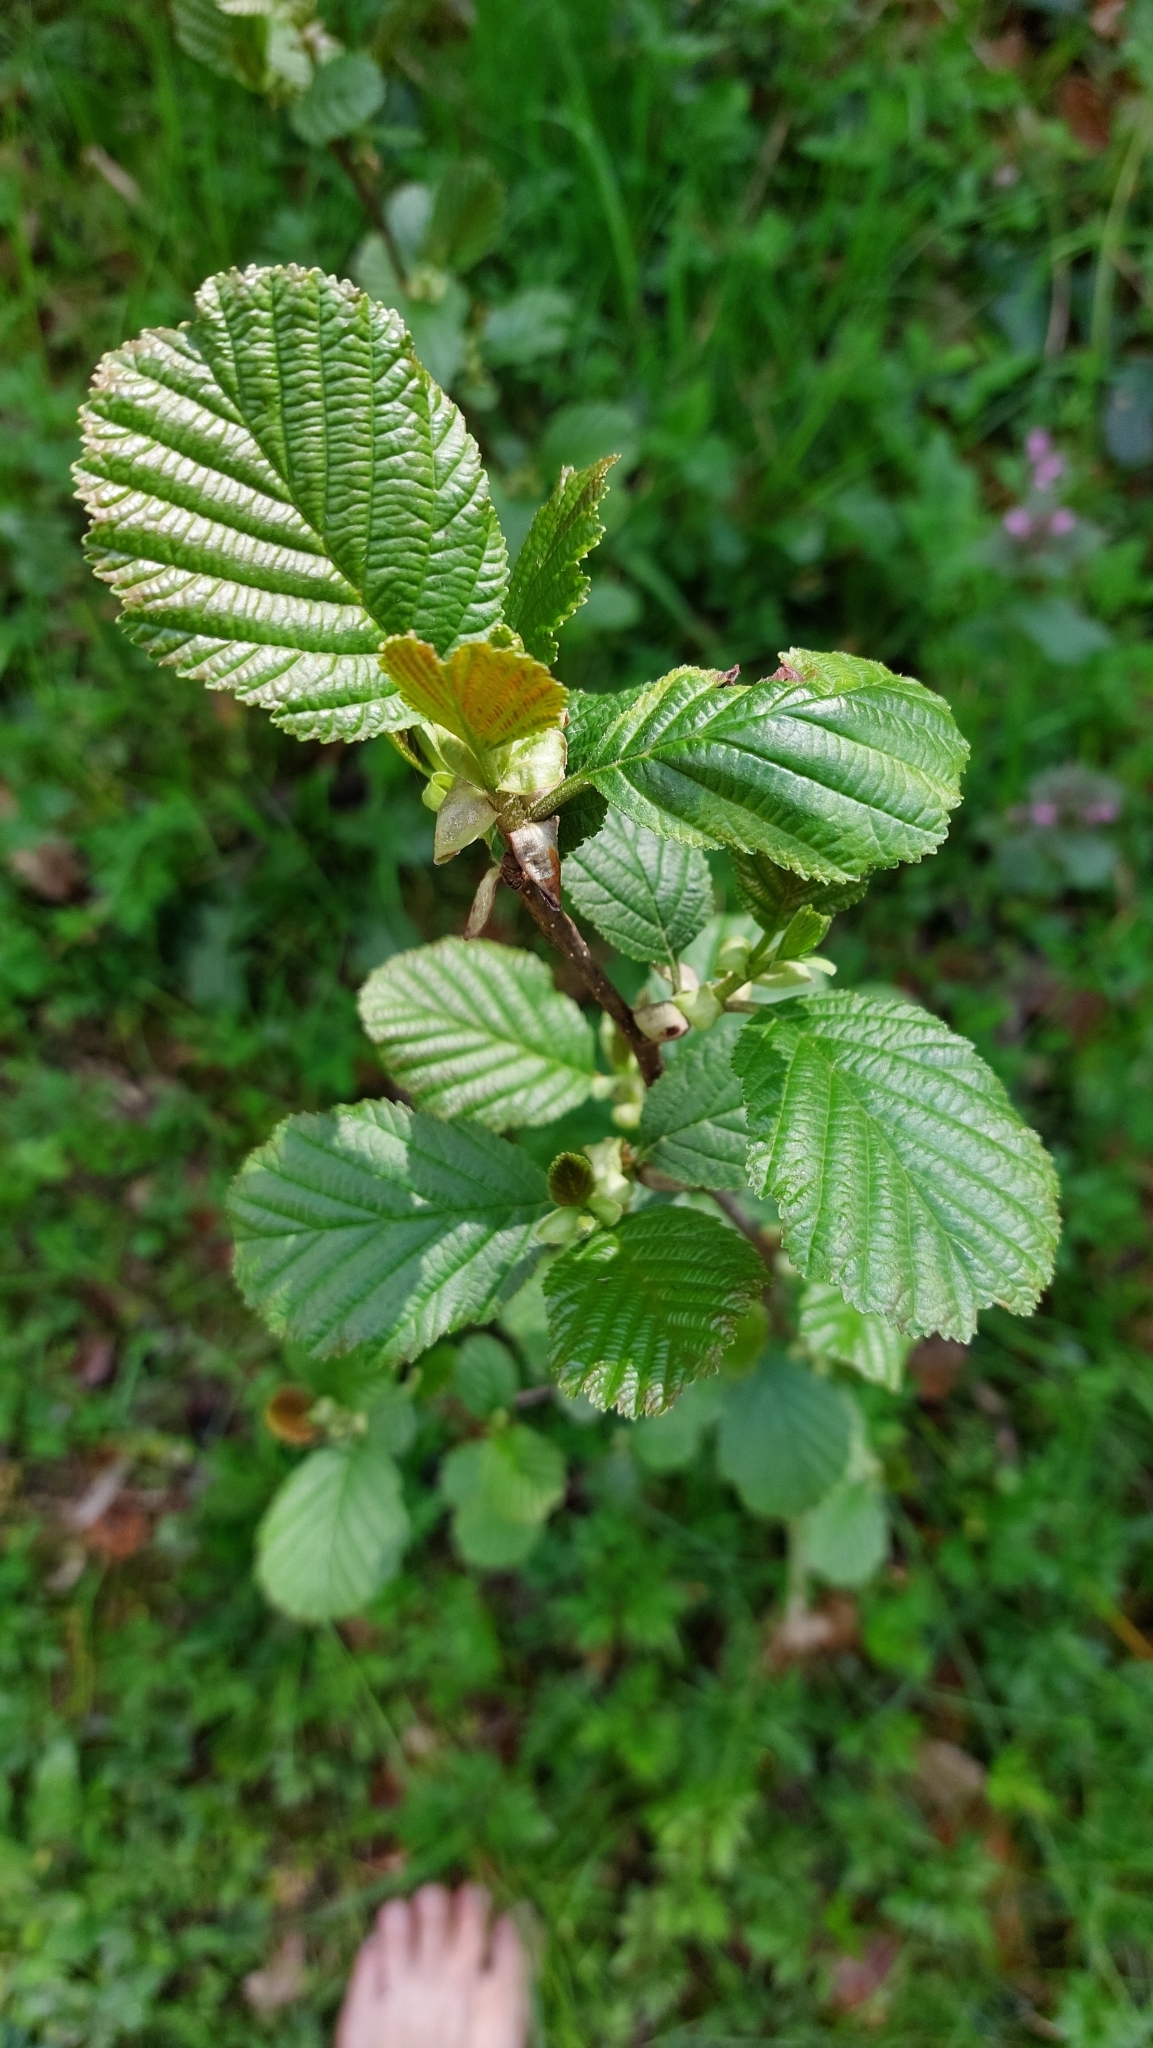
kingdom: Plantae
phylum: Tracheophyta
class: Magnoliopsida
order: Fagales
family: Betulaceae
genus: Alnus
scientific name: Alnus glutinosa
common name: Black alder
